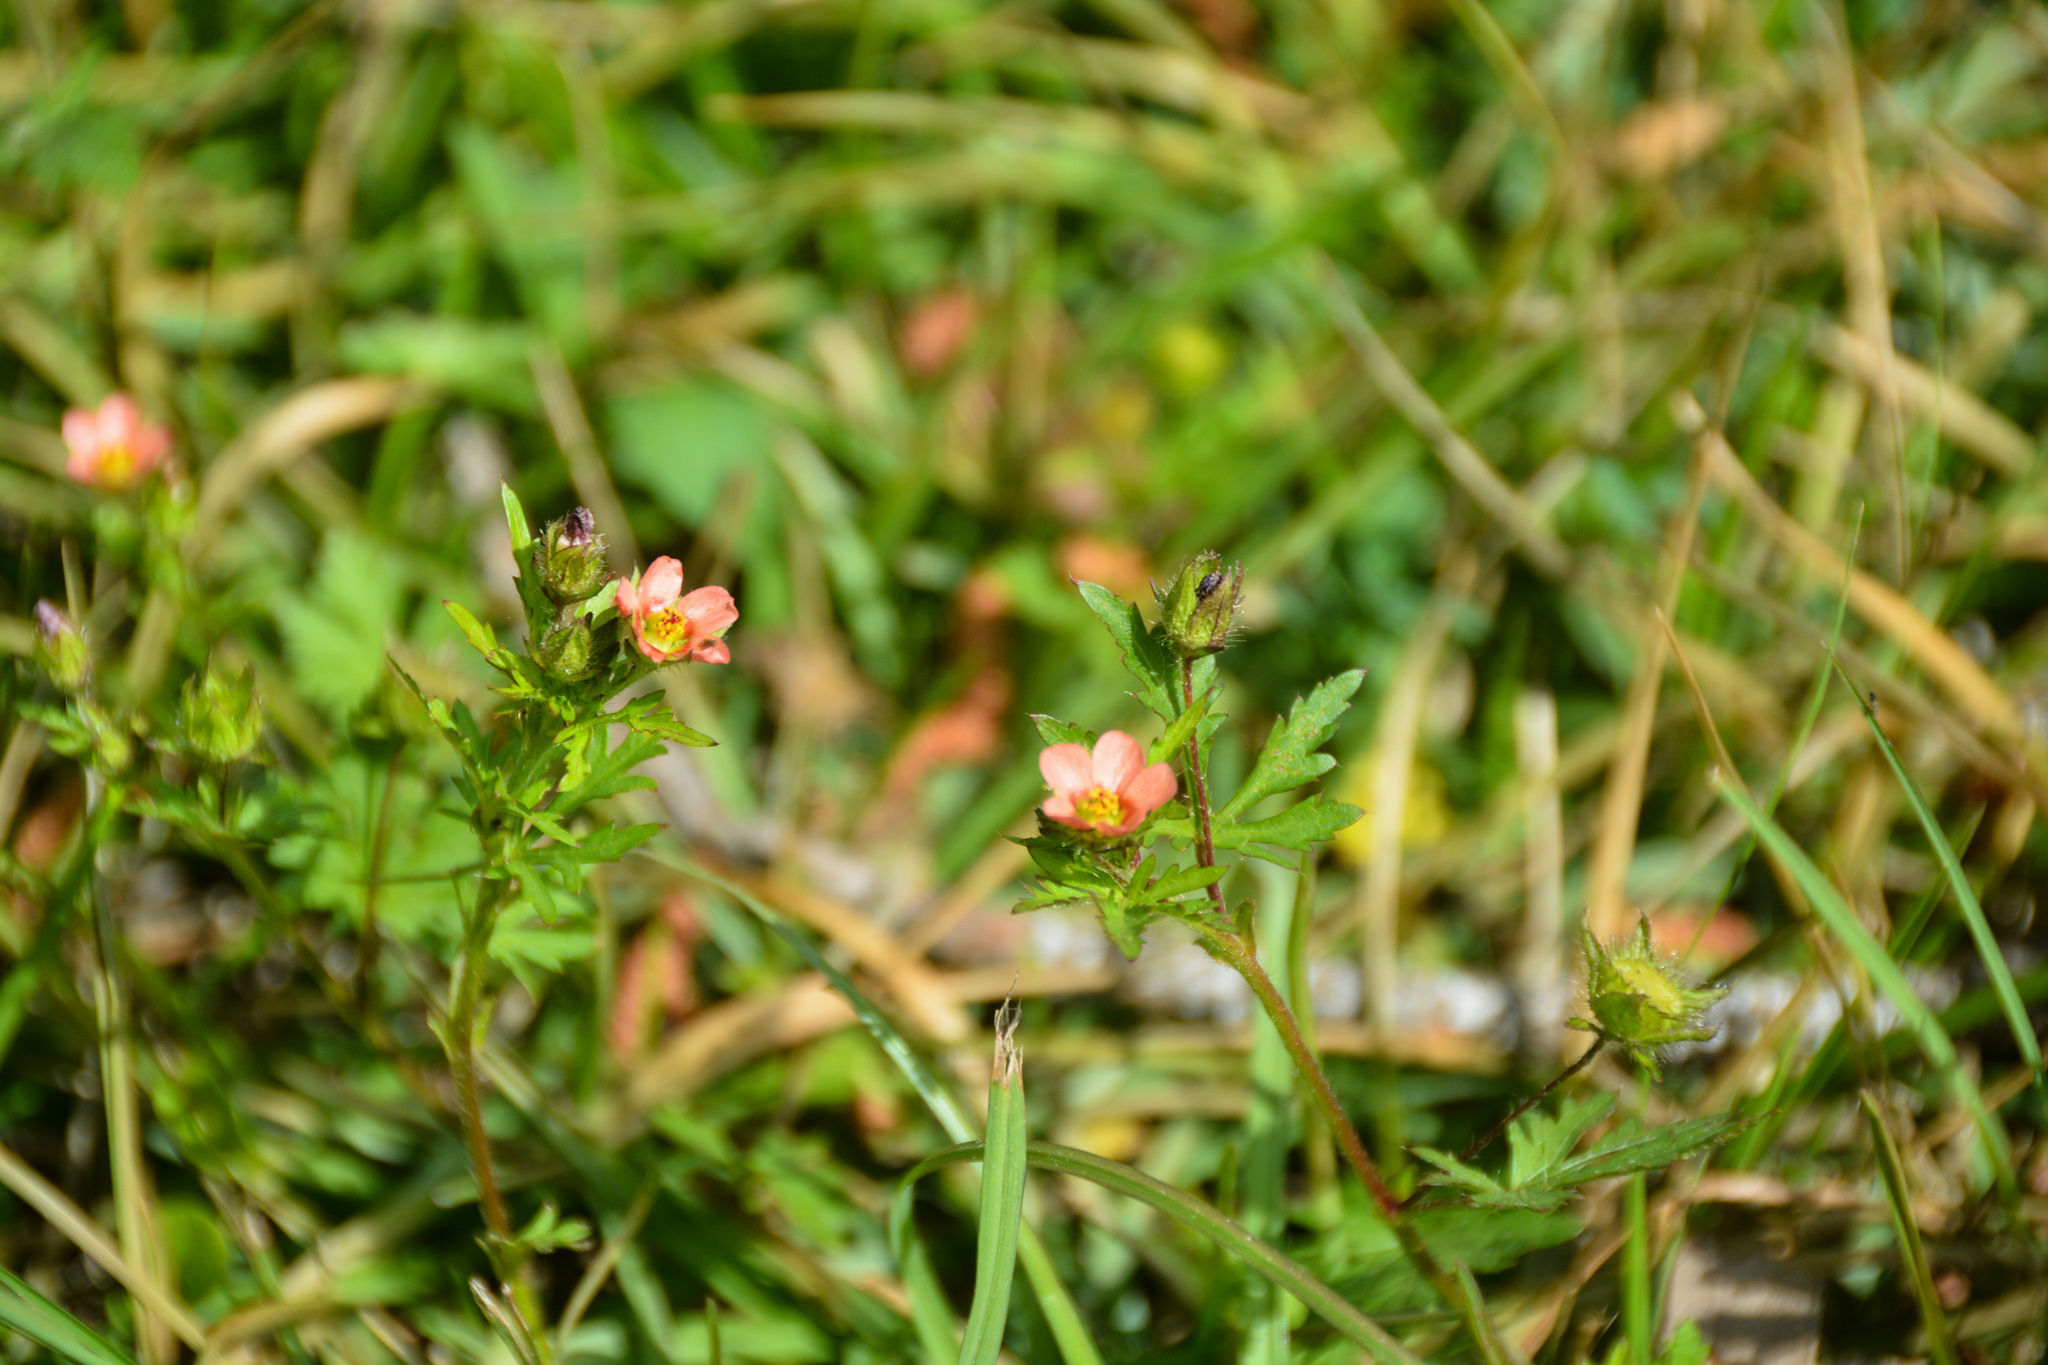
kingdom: Plantae
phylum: Tracheophyta
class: Magnoliopsida
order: Malvales
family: Malvaceae
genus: Modiola
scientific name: Modiola caroliniana
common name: Carolina bristlemallow
